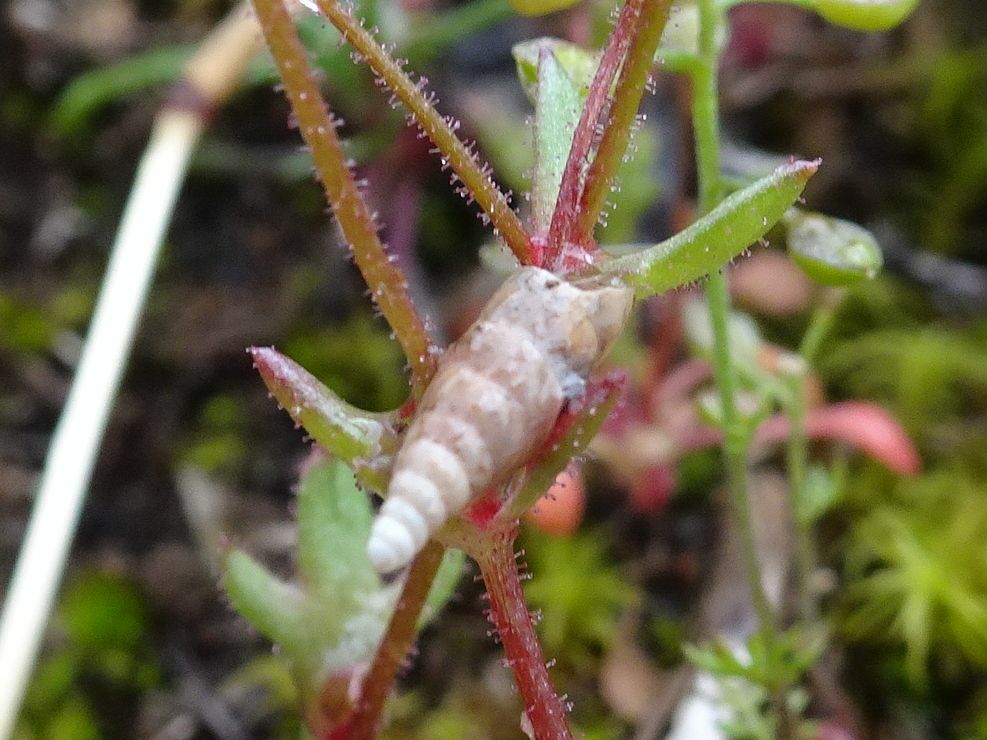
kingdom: Animalia
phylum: Mollusca
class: Gastropoda
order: Stylommatophora
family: Clausiliidae
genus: Cochlodina
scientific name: Cochlodina laminata
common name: Plaited door snail
